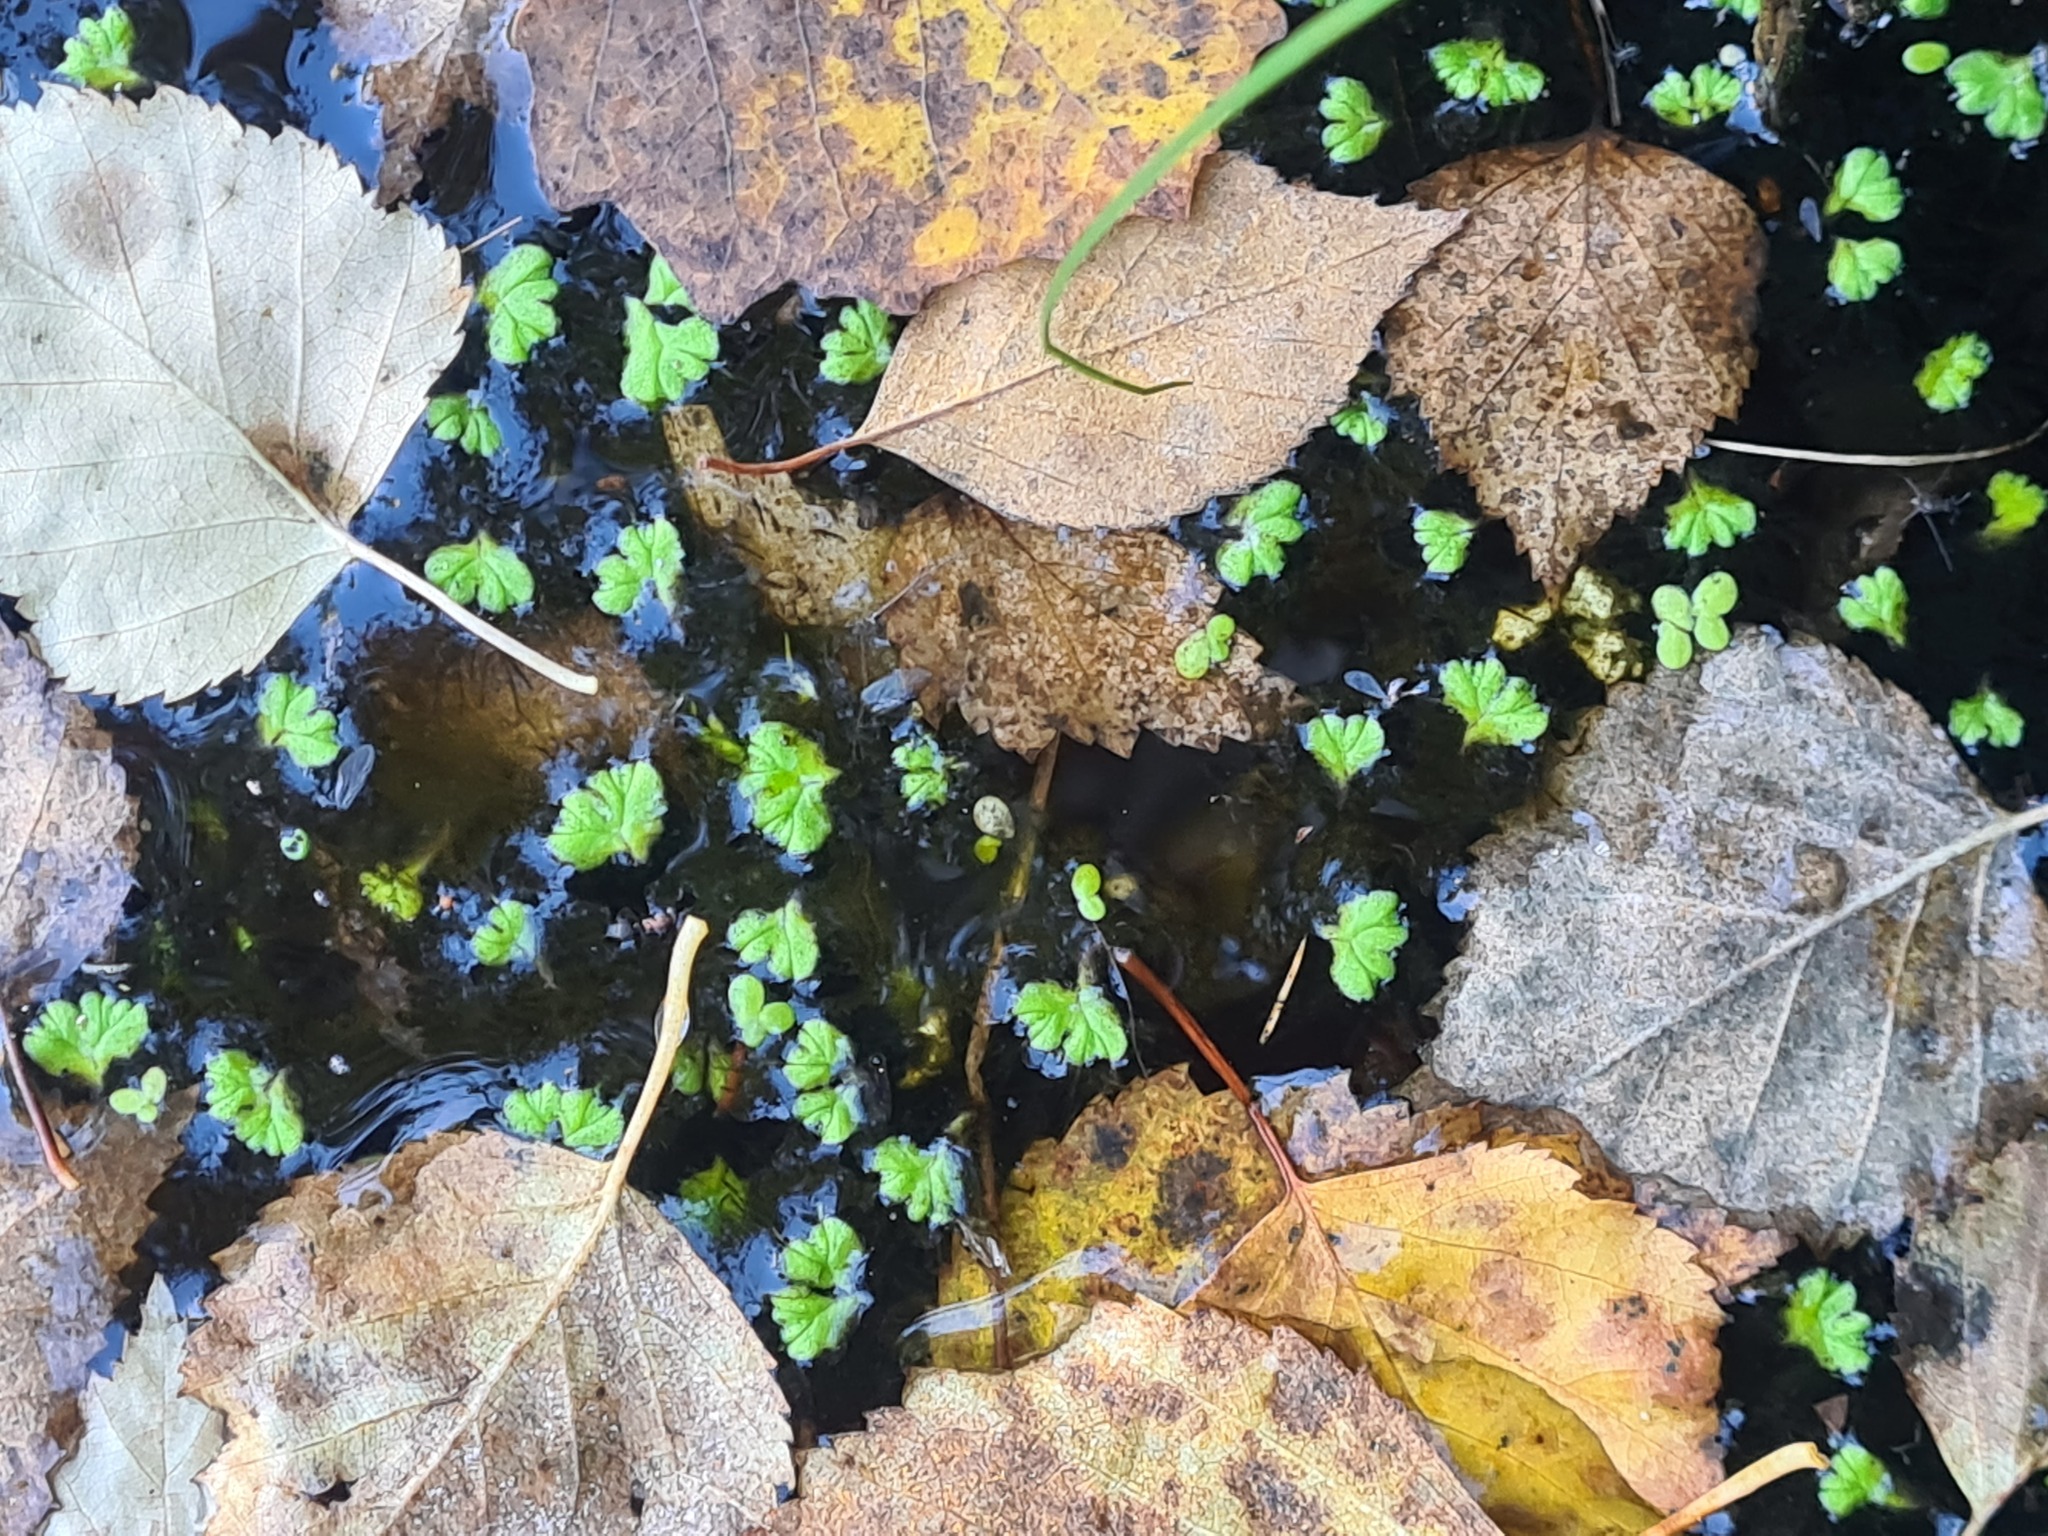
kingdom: Plantae
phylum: Marchantiophyta
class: Marchantiopsida
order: Marchantiales
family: Ricciaceae
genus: Ricciocarpos
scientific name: Ricciocarpos natans
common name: Purple-fringed liverwort
